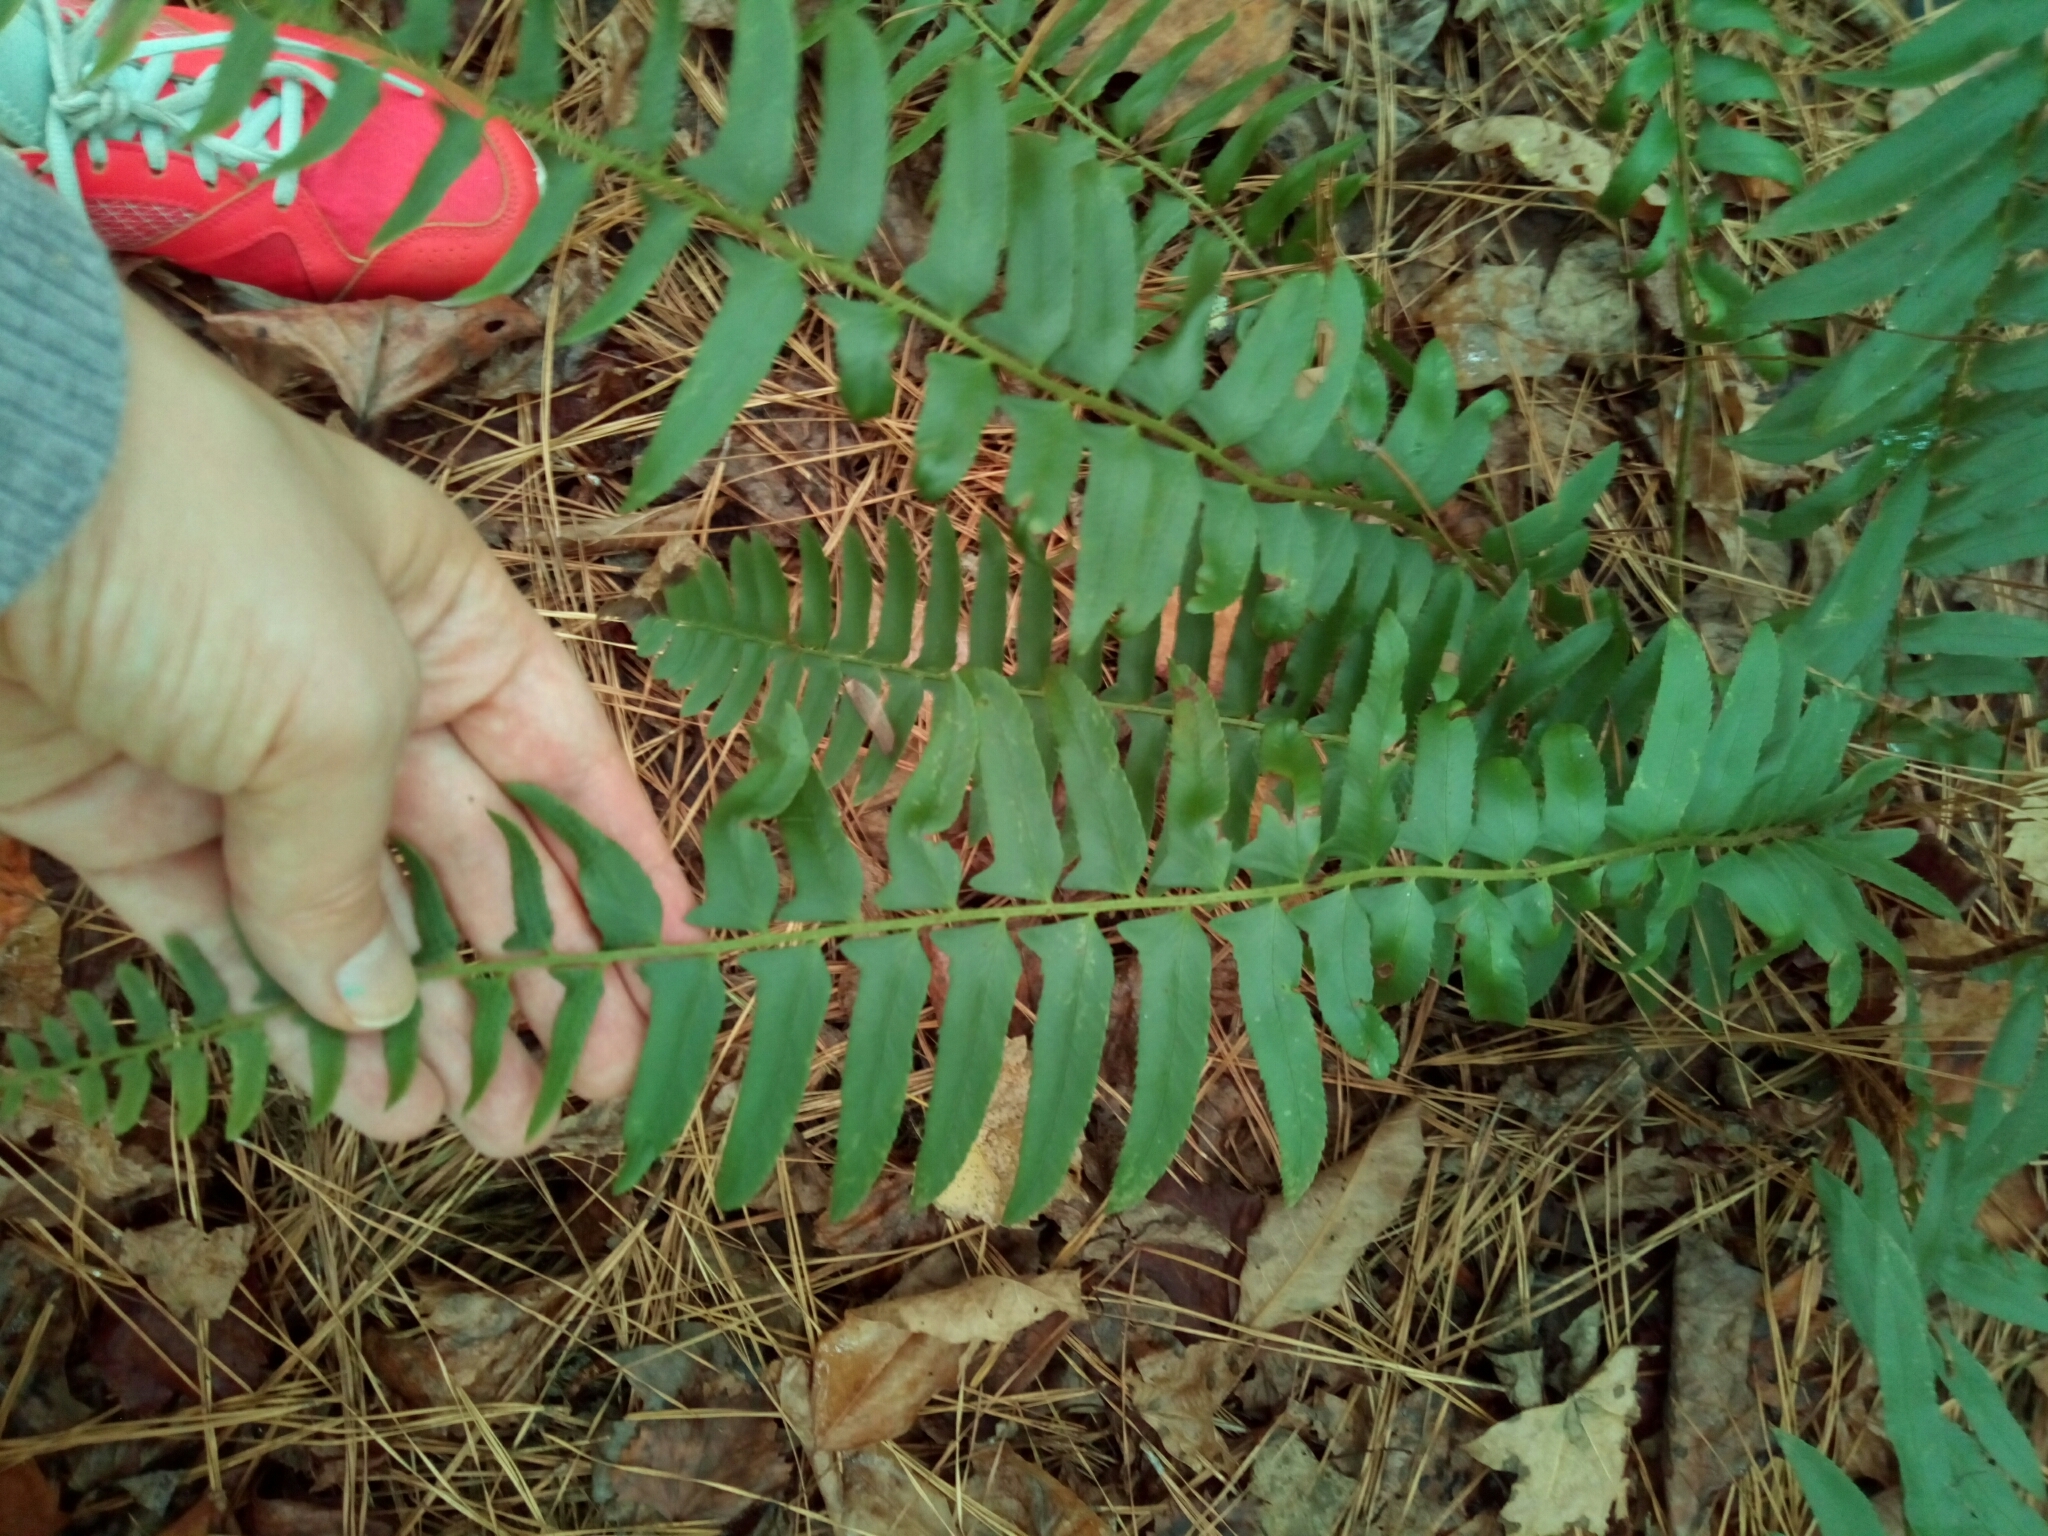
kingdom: Plantae
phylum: Tracheophyta
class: Polypodiopsida
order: Polypodiales
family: Dryopteridaceae
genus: Polystichum
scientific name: Polystichum acrostichoides
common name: Christmas fern
